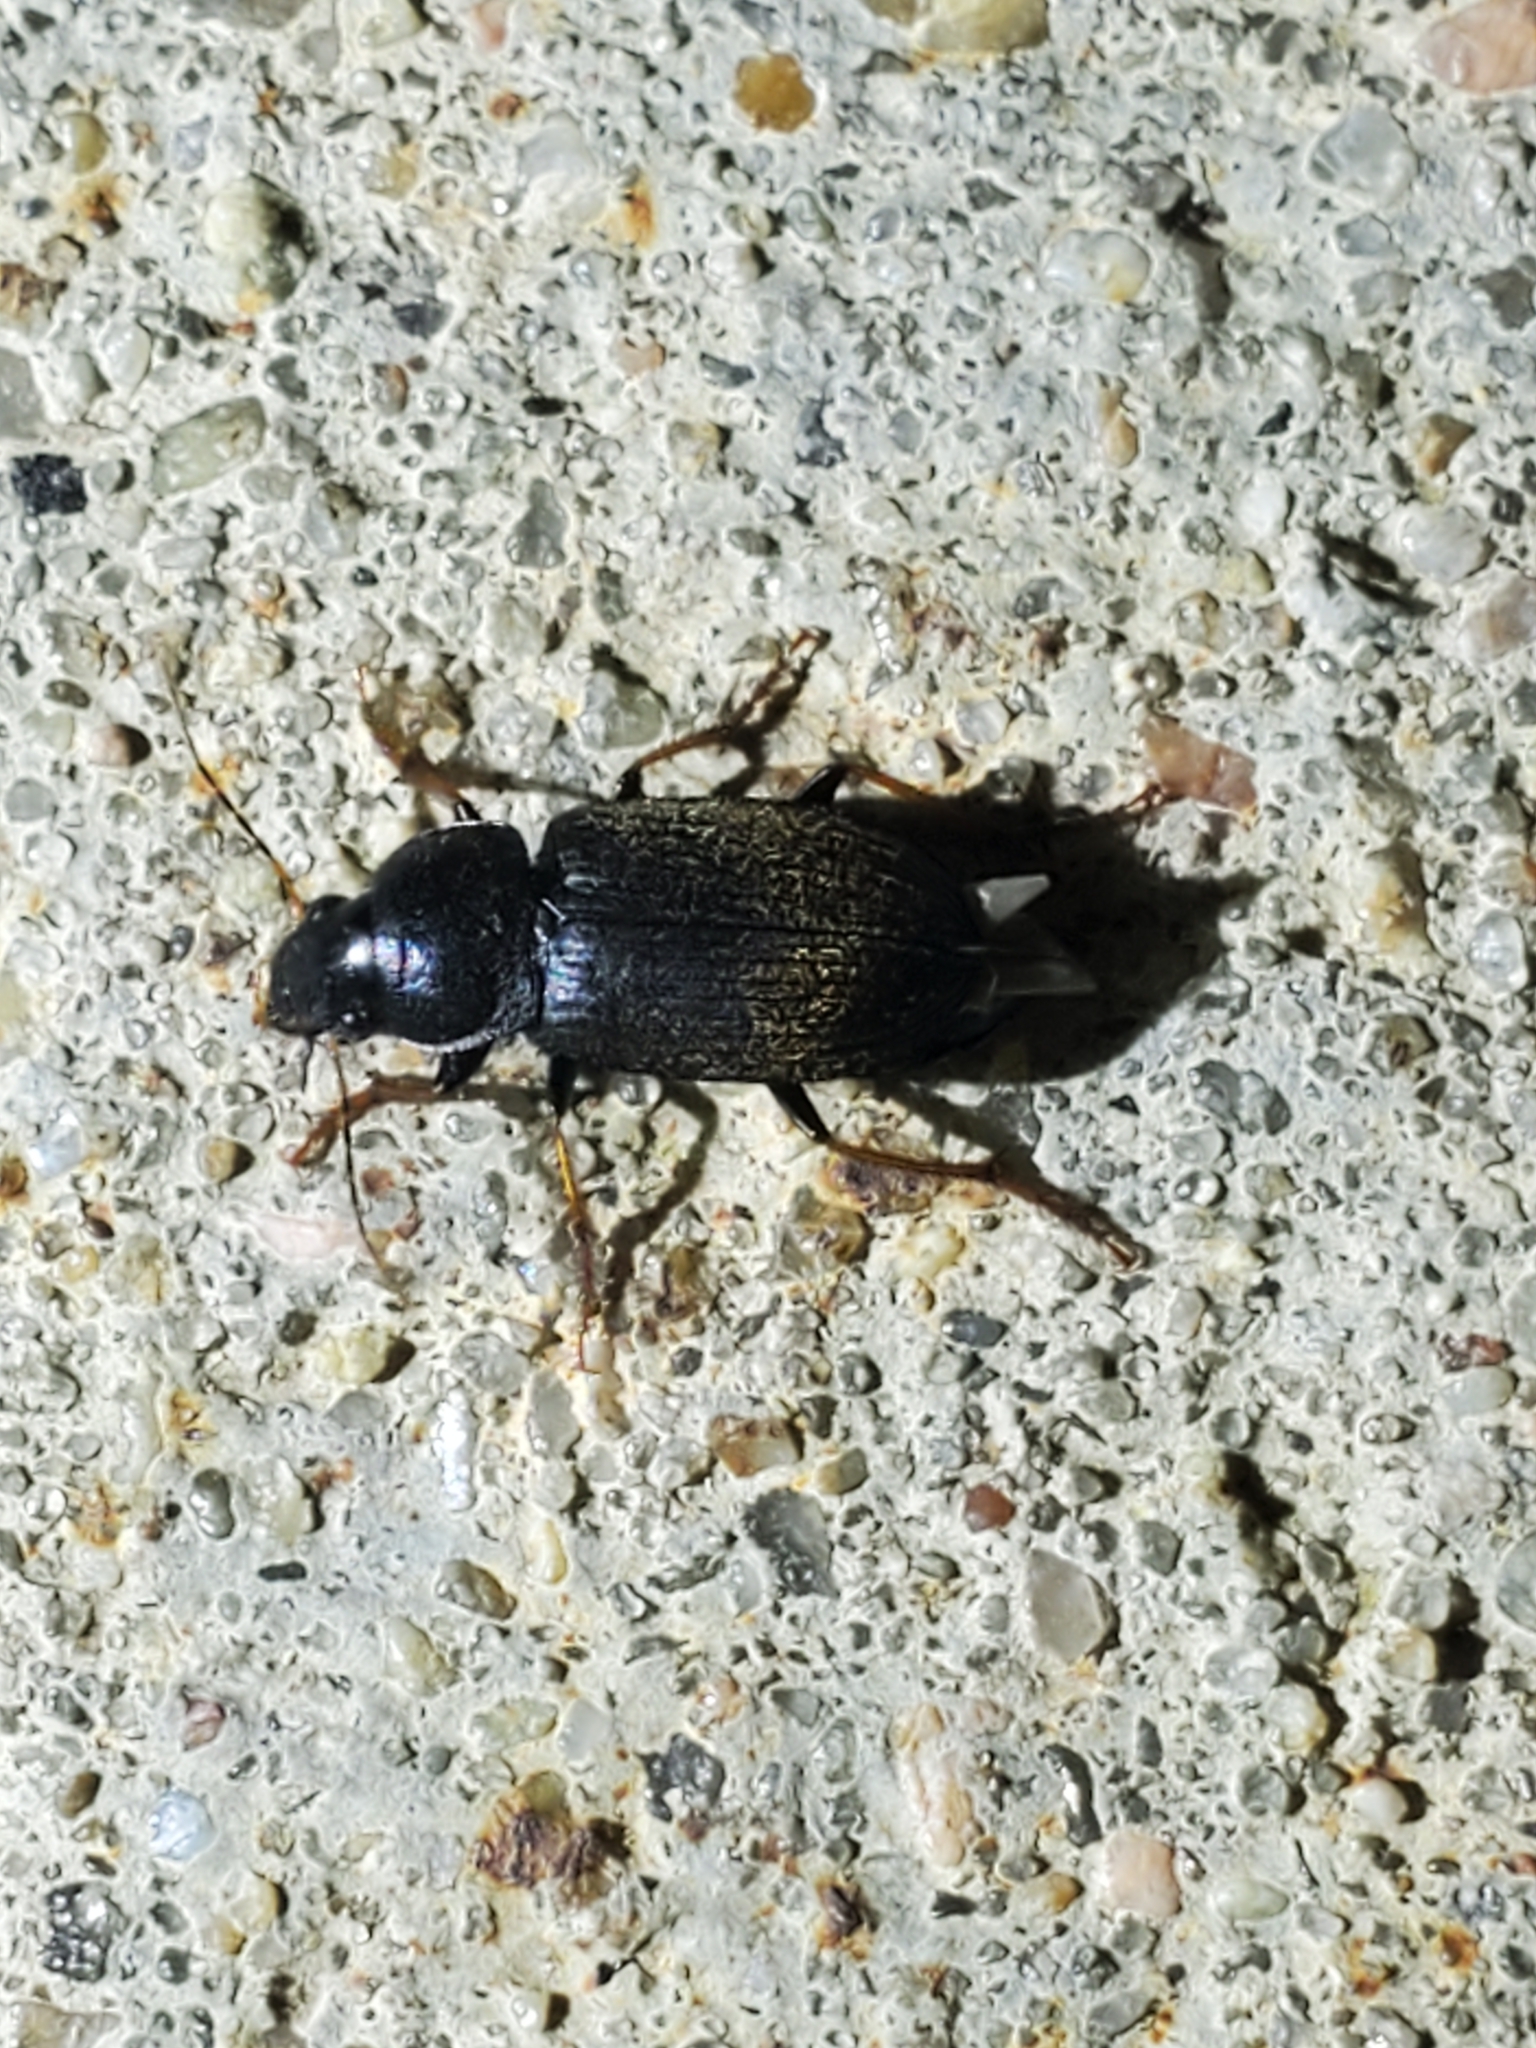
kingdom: Animalia
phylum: Arthropoda
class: Insecta
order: Coleoptera
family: Carabidae
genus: Amphasia
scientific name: Amphasia sericea
